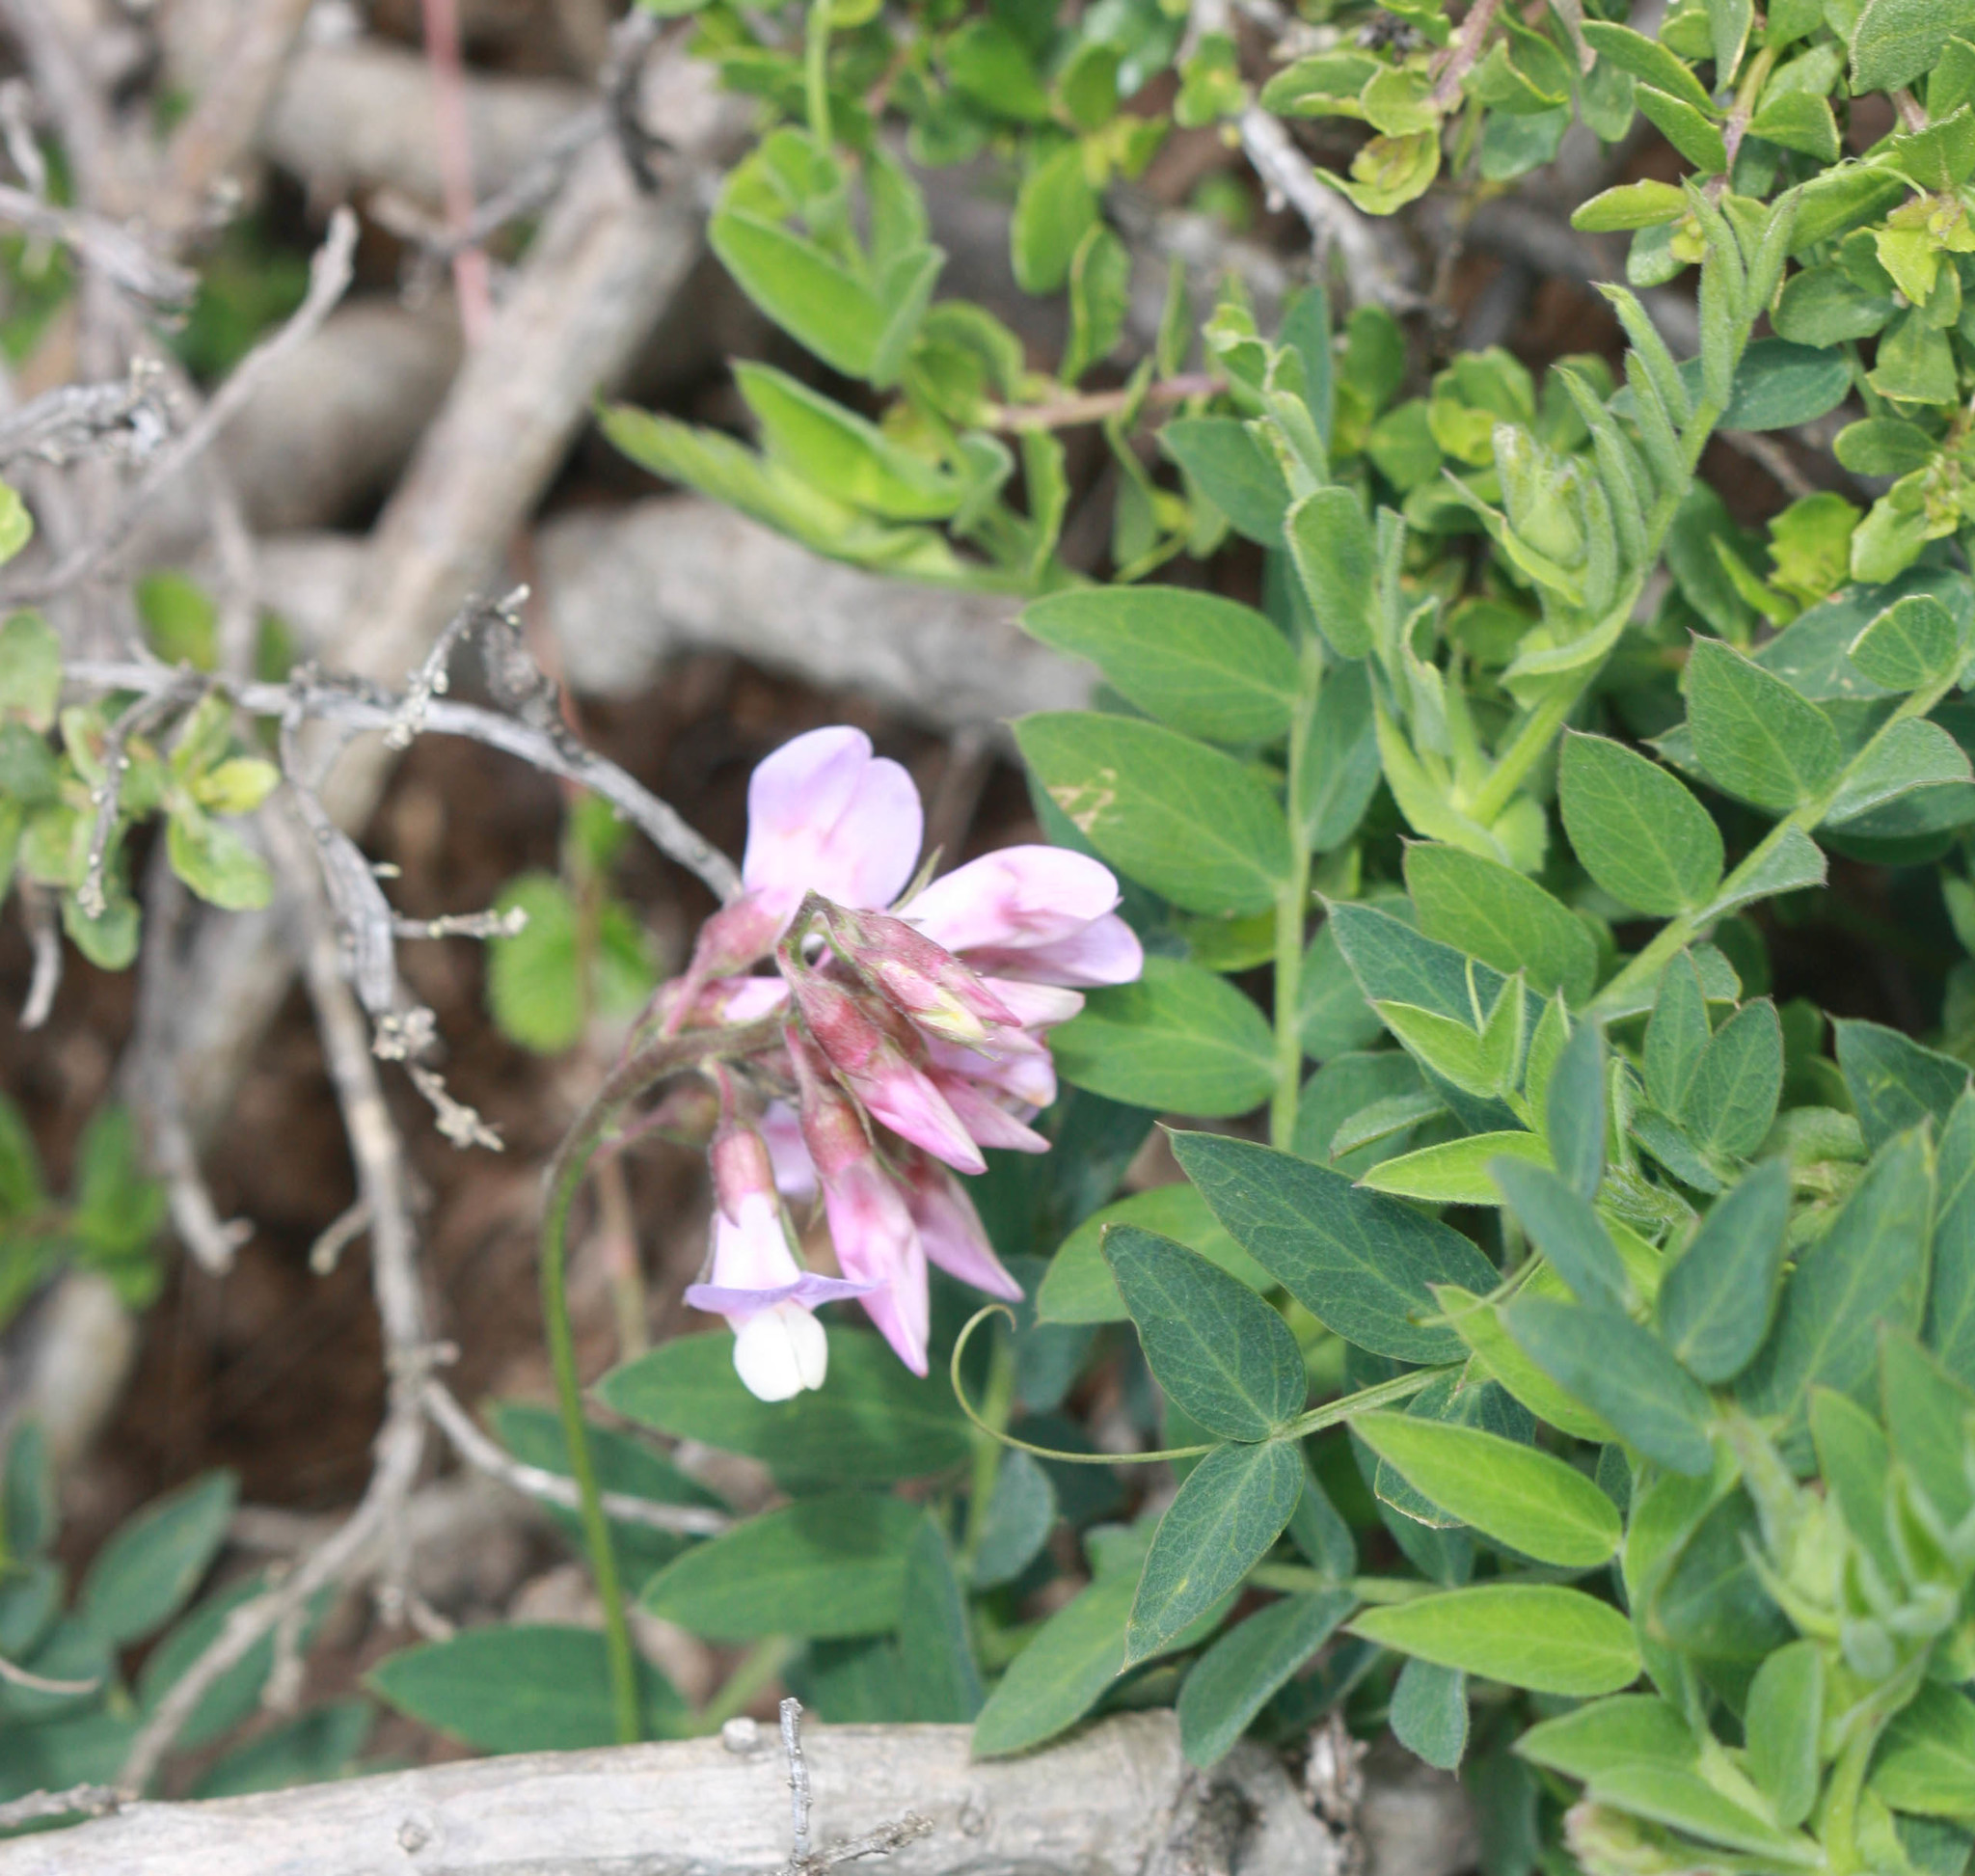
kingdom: Plantae
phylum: Tracheophyta
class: Magnoliopsida
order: Fabales
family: Fabaceae
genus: Lathyrus
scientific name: Lathyrus vestitus
